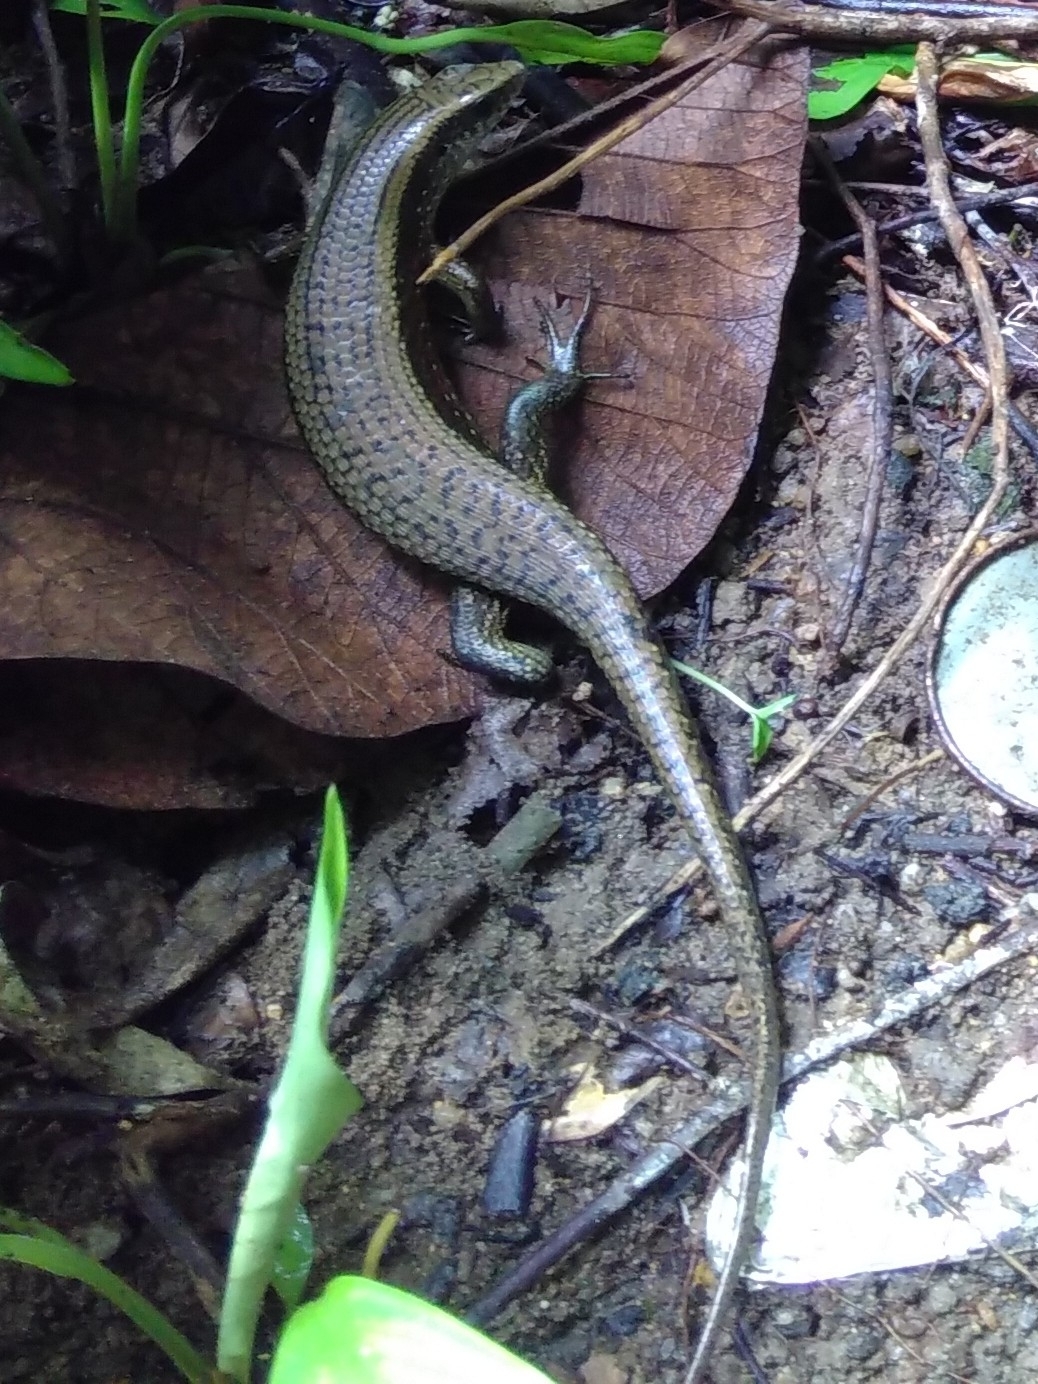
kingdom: Animalia
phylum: Chordata
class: Squamata
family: Scincidae
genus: Eutropis
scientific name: Eutropis multifasciata
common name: Common mabuya
